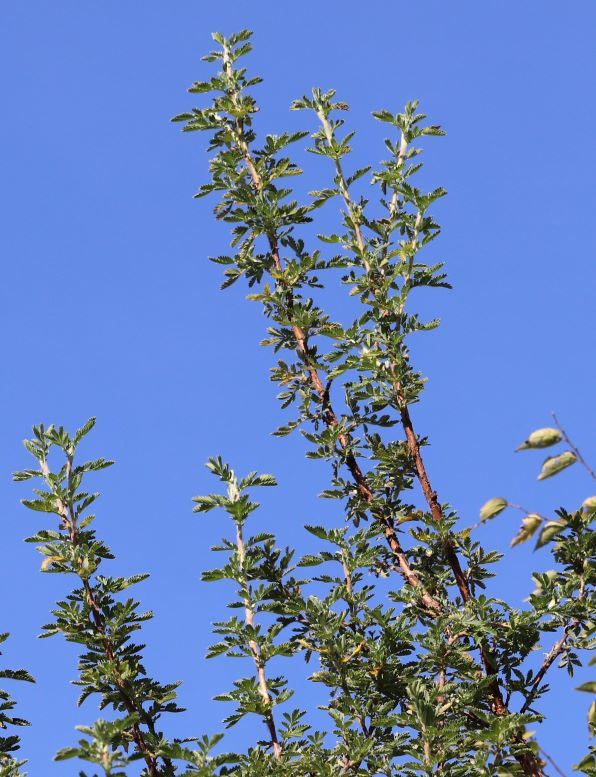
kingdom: Plantae
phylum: Tracheophyta
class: Magnoliopsida
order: Rosales
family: Rosaceae
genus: Leucosidea
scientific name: Leucosidea sericea
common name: Oldwood
